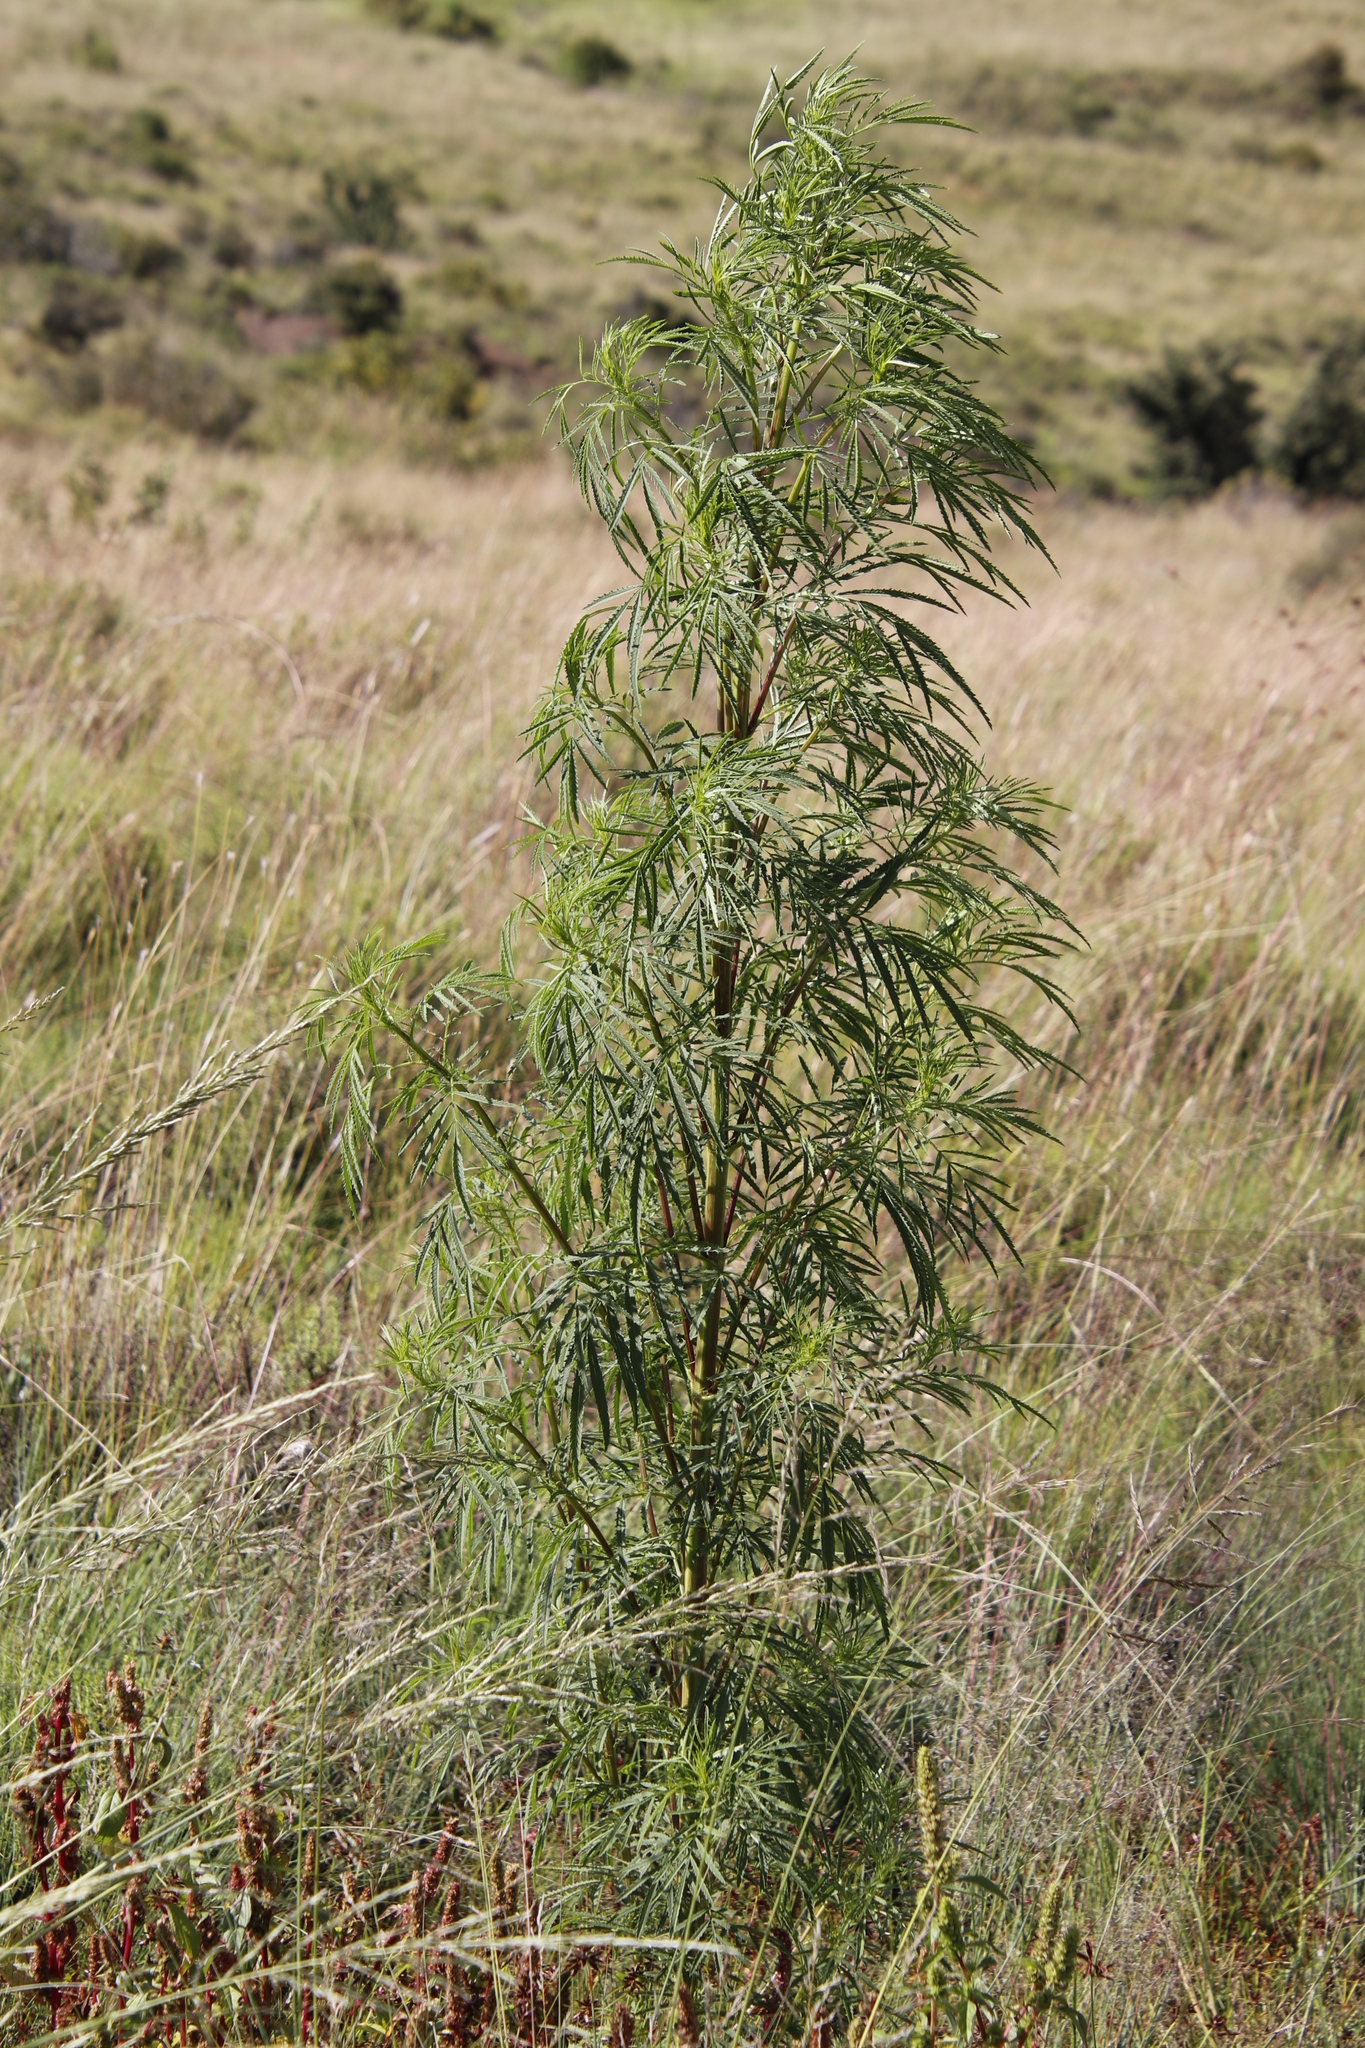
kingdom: Plantae
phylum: Tracheophyta
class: Magnoliopsida
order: Asterales
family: Asteraceae
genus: Tagetes
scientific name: Tagetes minuta
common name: Muster john henry
